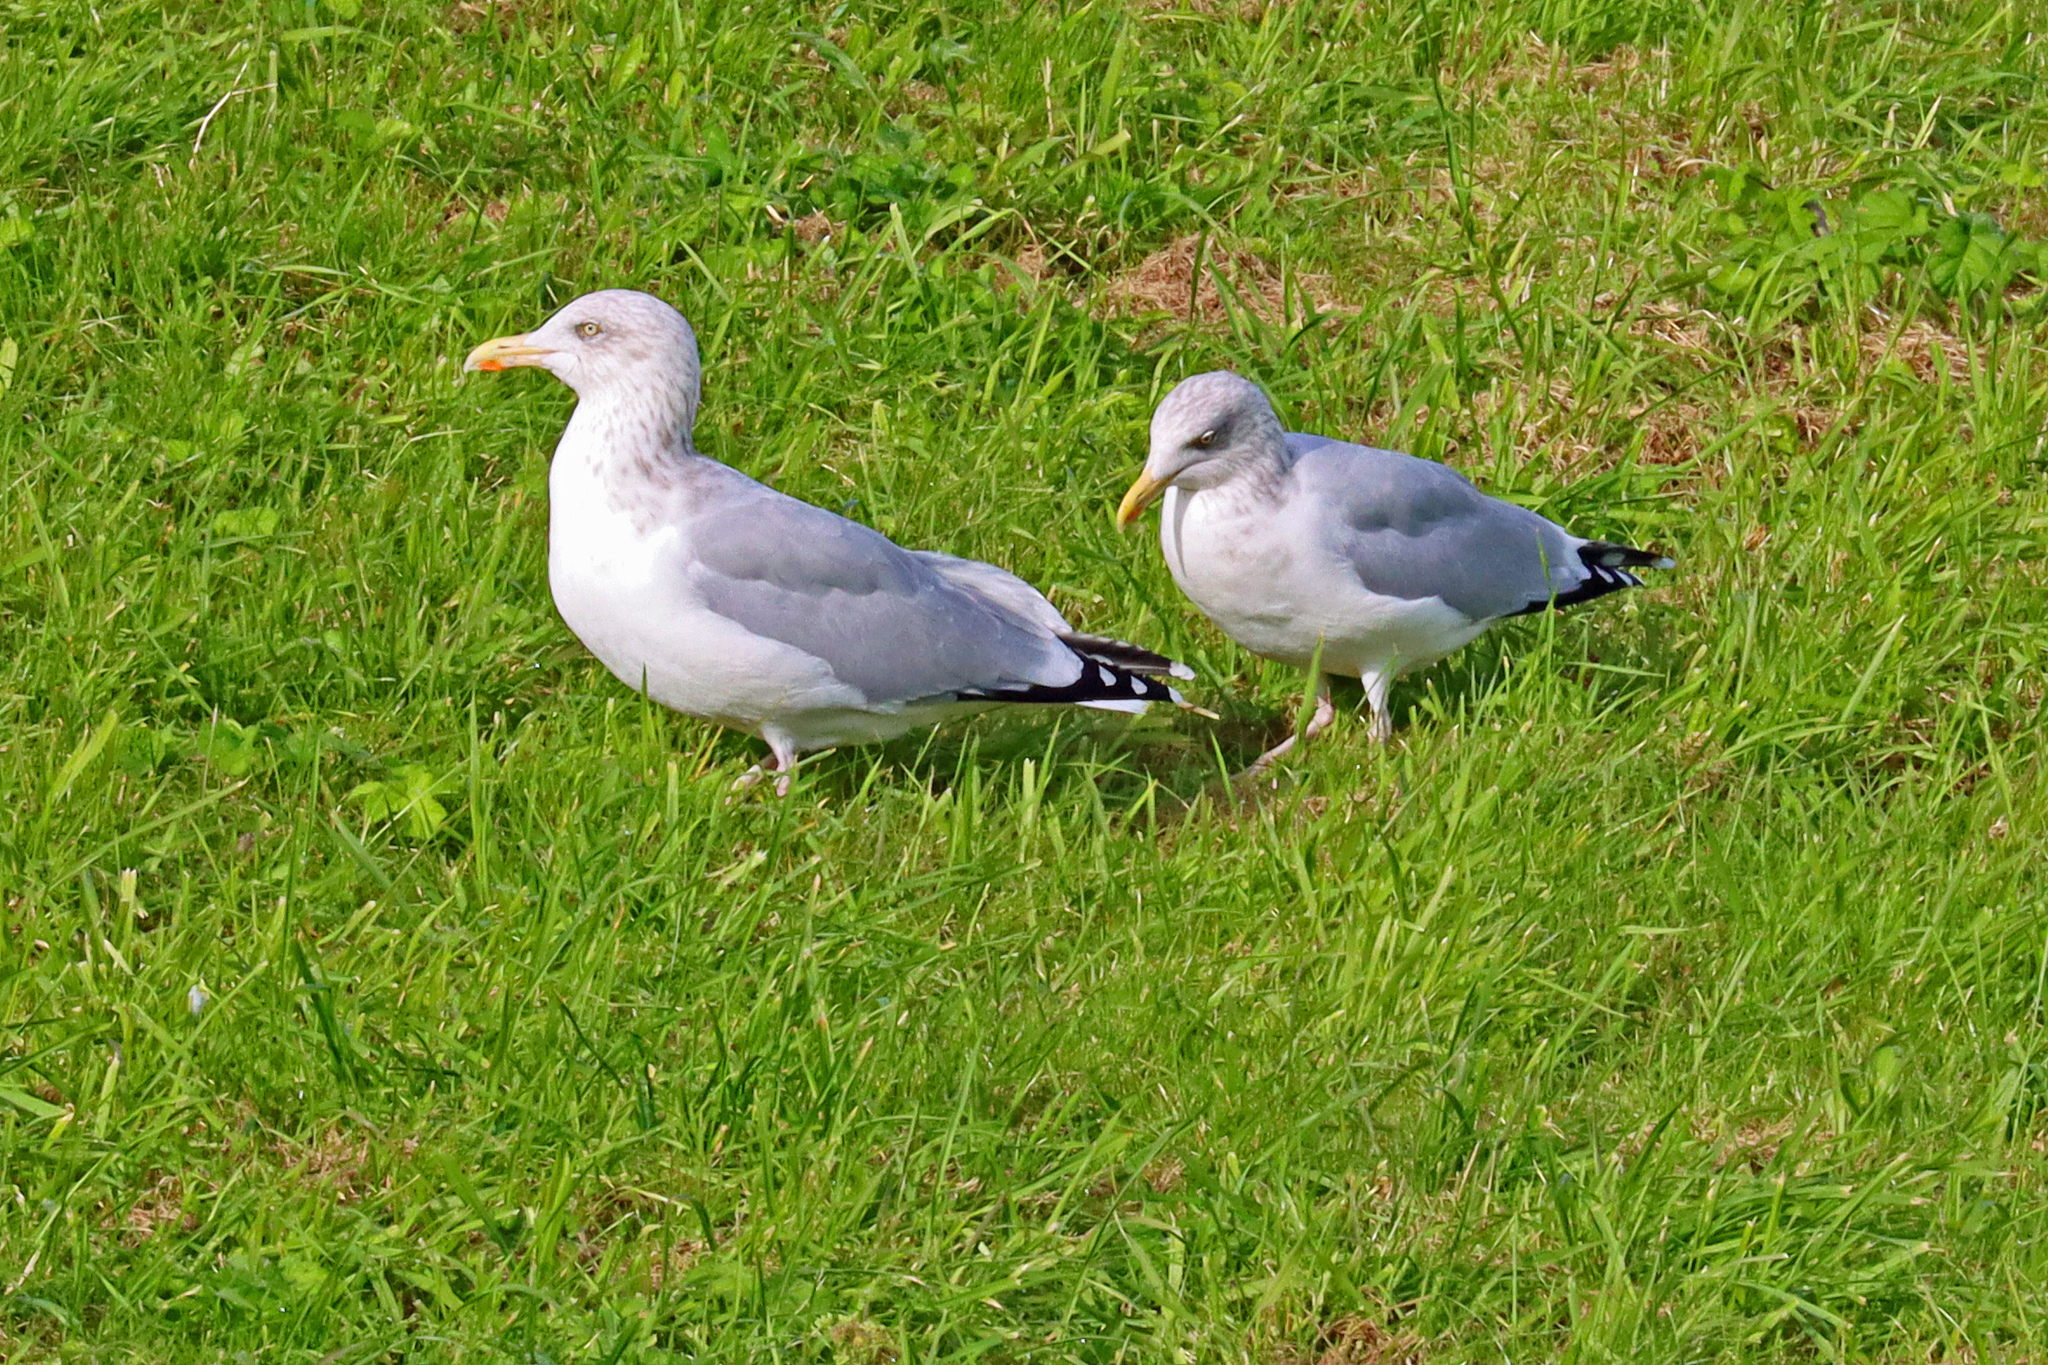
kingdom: Animalia
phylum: Chordata
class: Aves
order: Charadriiformes
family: Laridae
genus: Larus
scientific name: Larus argentatus
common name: Herring gull
